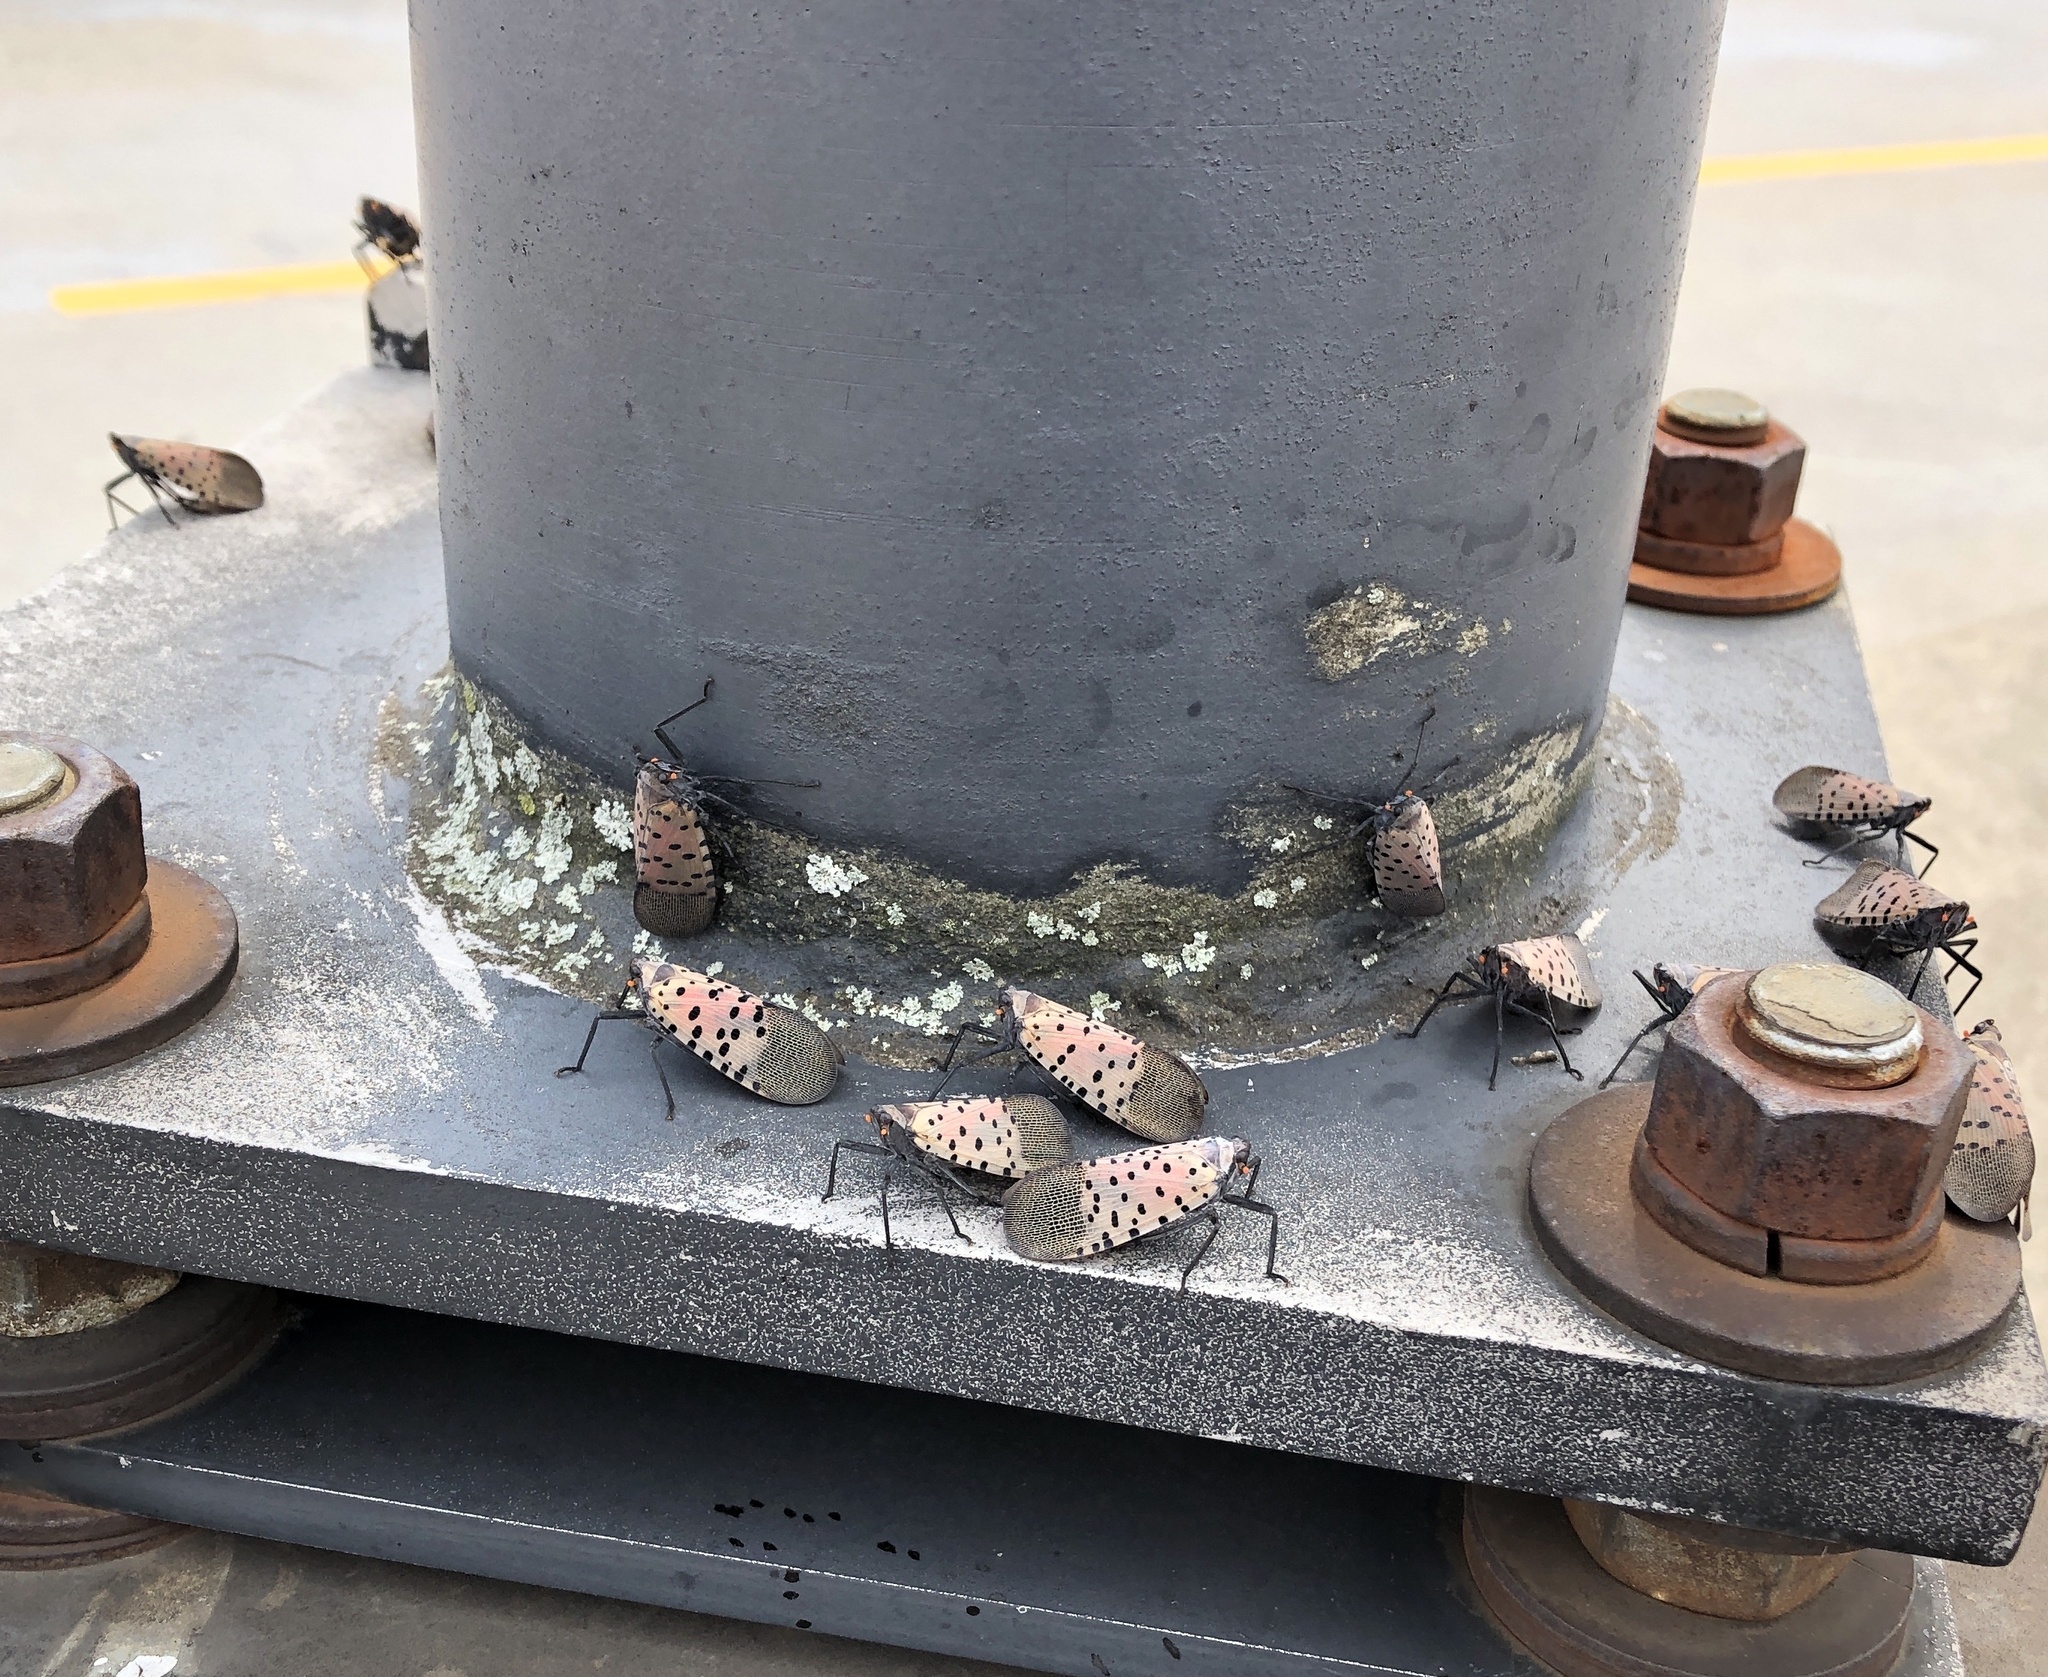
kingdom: Animalia
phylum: Arthropoda
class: Insecta
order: Hemiptera
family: Fulgoridae
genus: Lycorma
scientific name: Lycorma delicatula
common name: Spotted lanternfly
